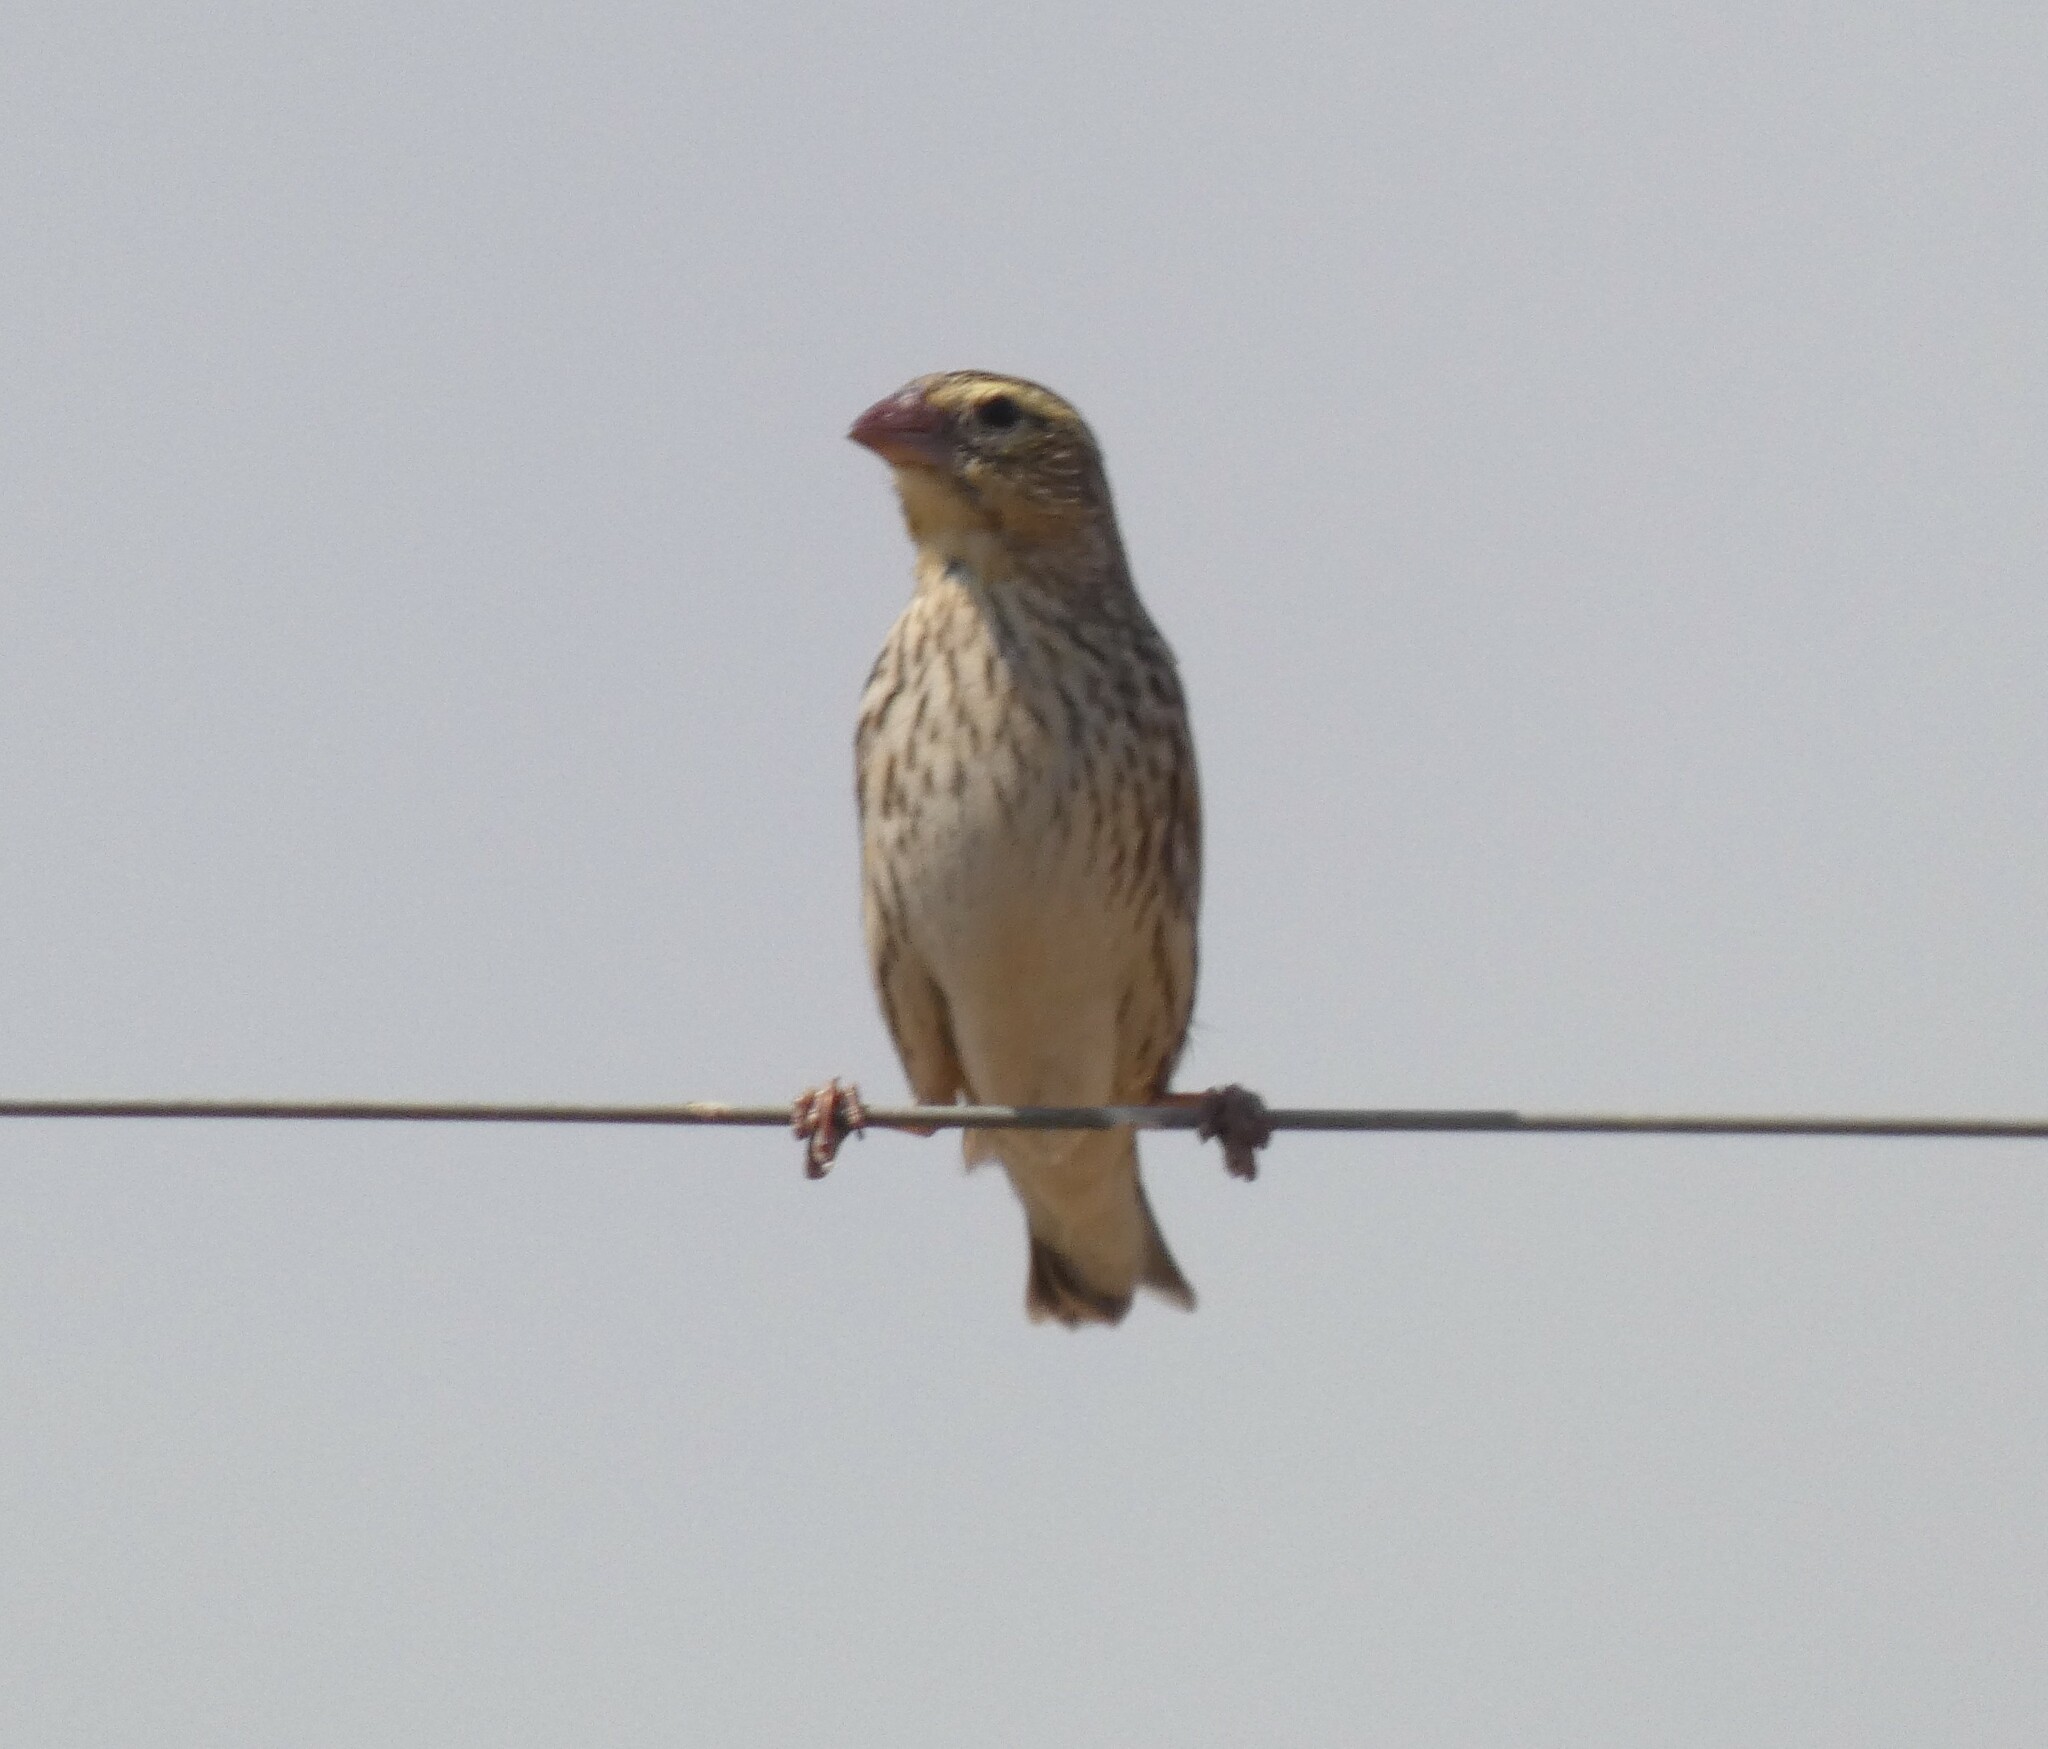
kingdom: Animalia
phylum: Chordata
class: Aves
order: Passeriformes
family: Ploceidae
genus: Euplectes
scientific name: Euplectes orix
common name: Southern red bishop
